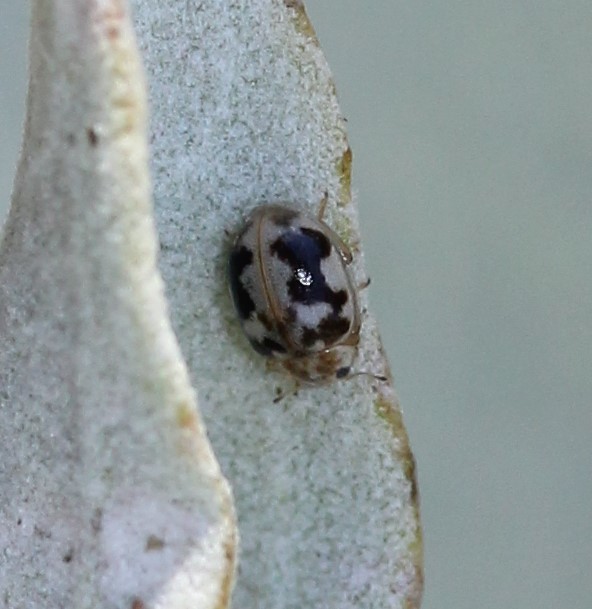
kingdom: Animalia
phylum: Arthropoda
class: Insecta
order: Coleoptera
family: Coccinellidae
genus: Psyllobora
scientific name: Psyllobora renifer
